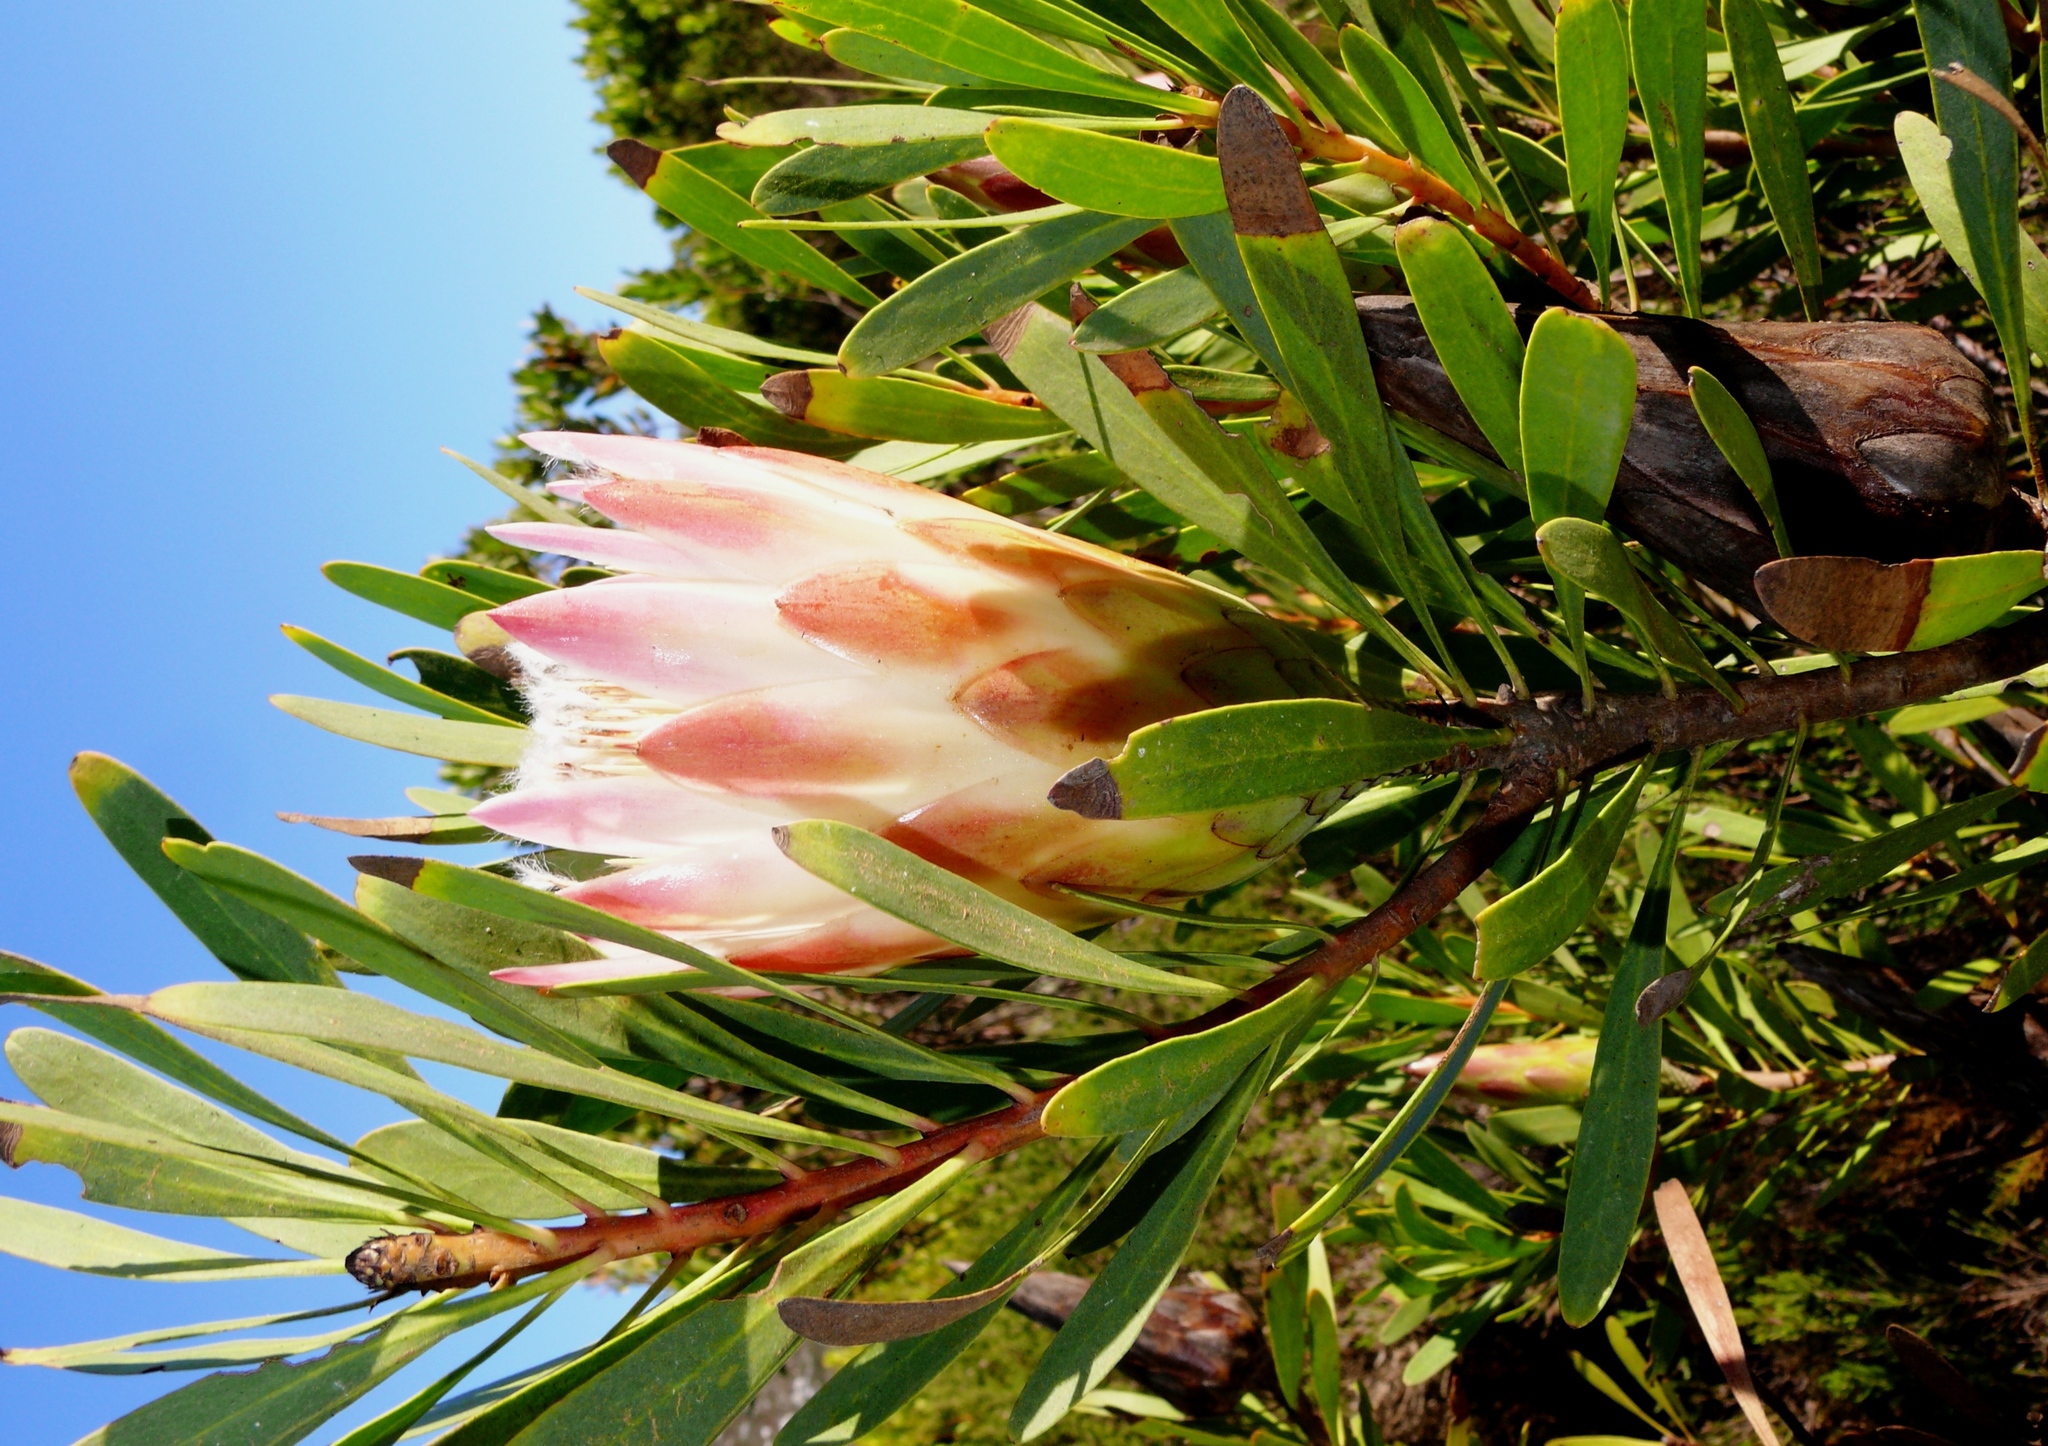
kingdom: Plantae
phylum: Tracheophyta
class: Magnoliopsida
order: Proteales
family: Proteaceae
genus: Protea
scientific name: Protea repens
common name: Sugarbush
